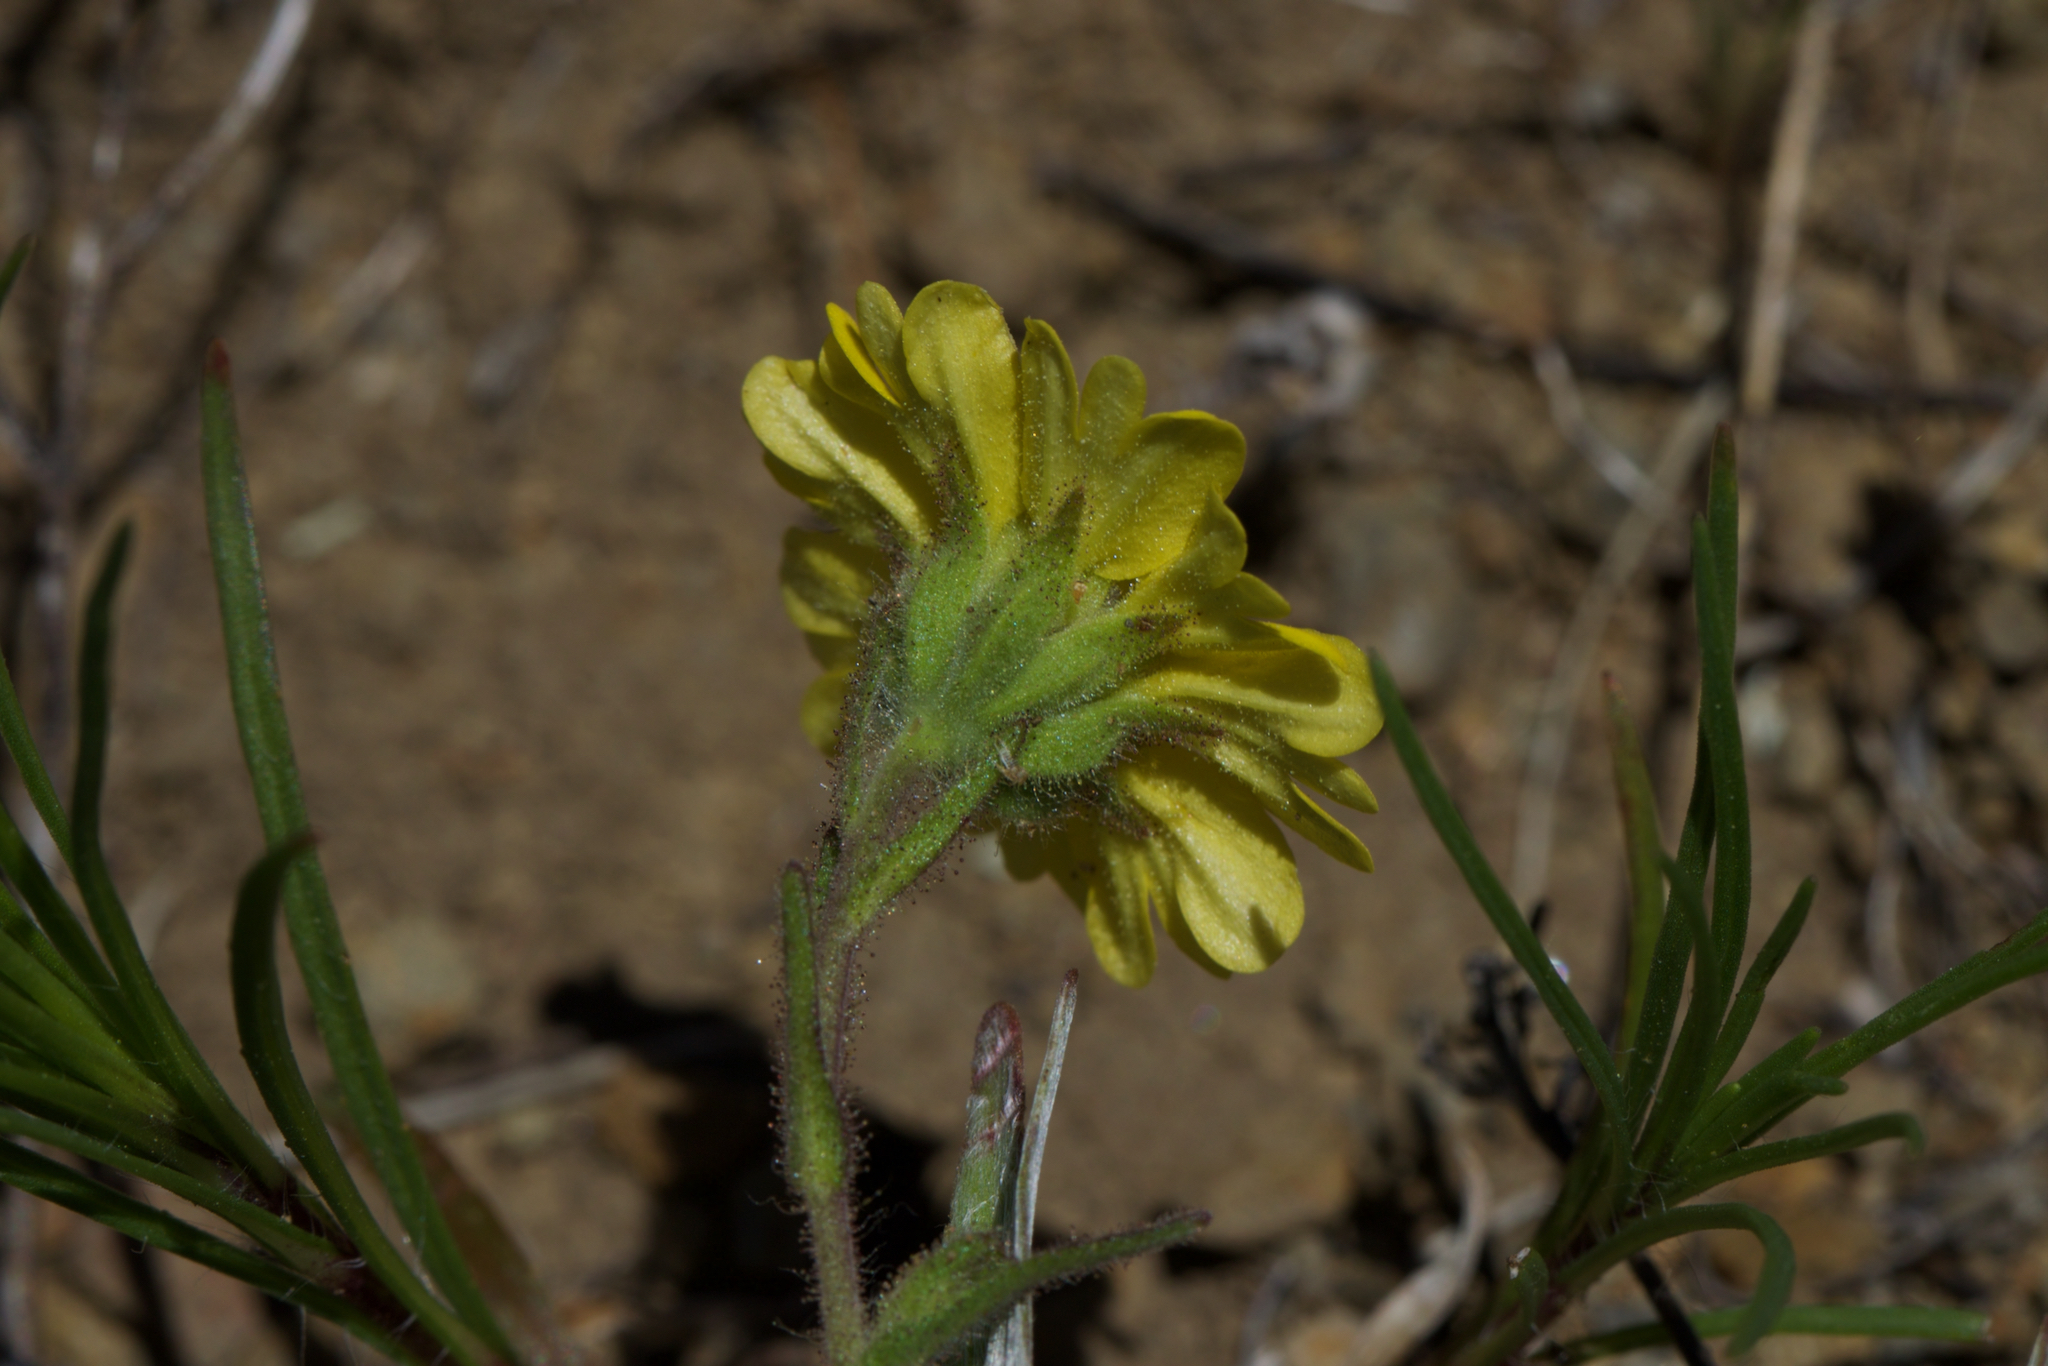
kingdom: Plantae
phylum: Tracheophyta
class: Magnoliopsida
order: Asterales
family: Asteraceae
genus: Hemizonia
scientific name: Hemizonia congesta
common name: Hayfield tarweed
